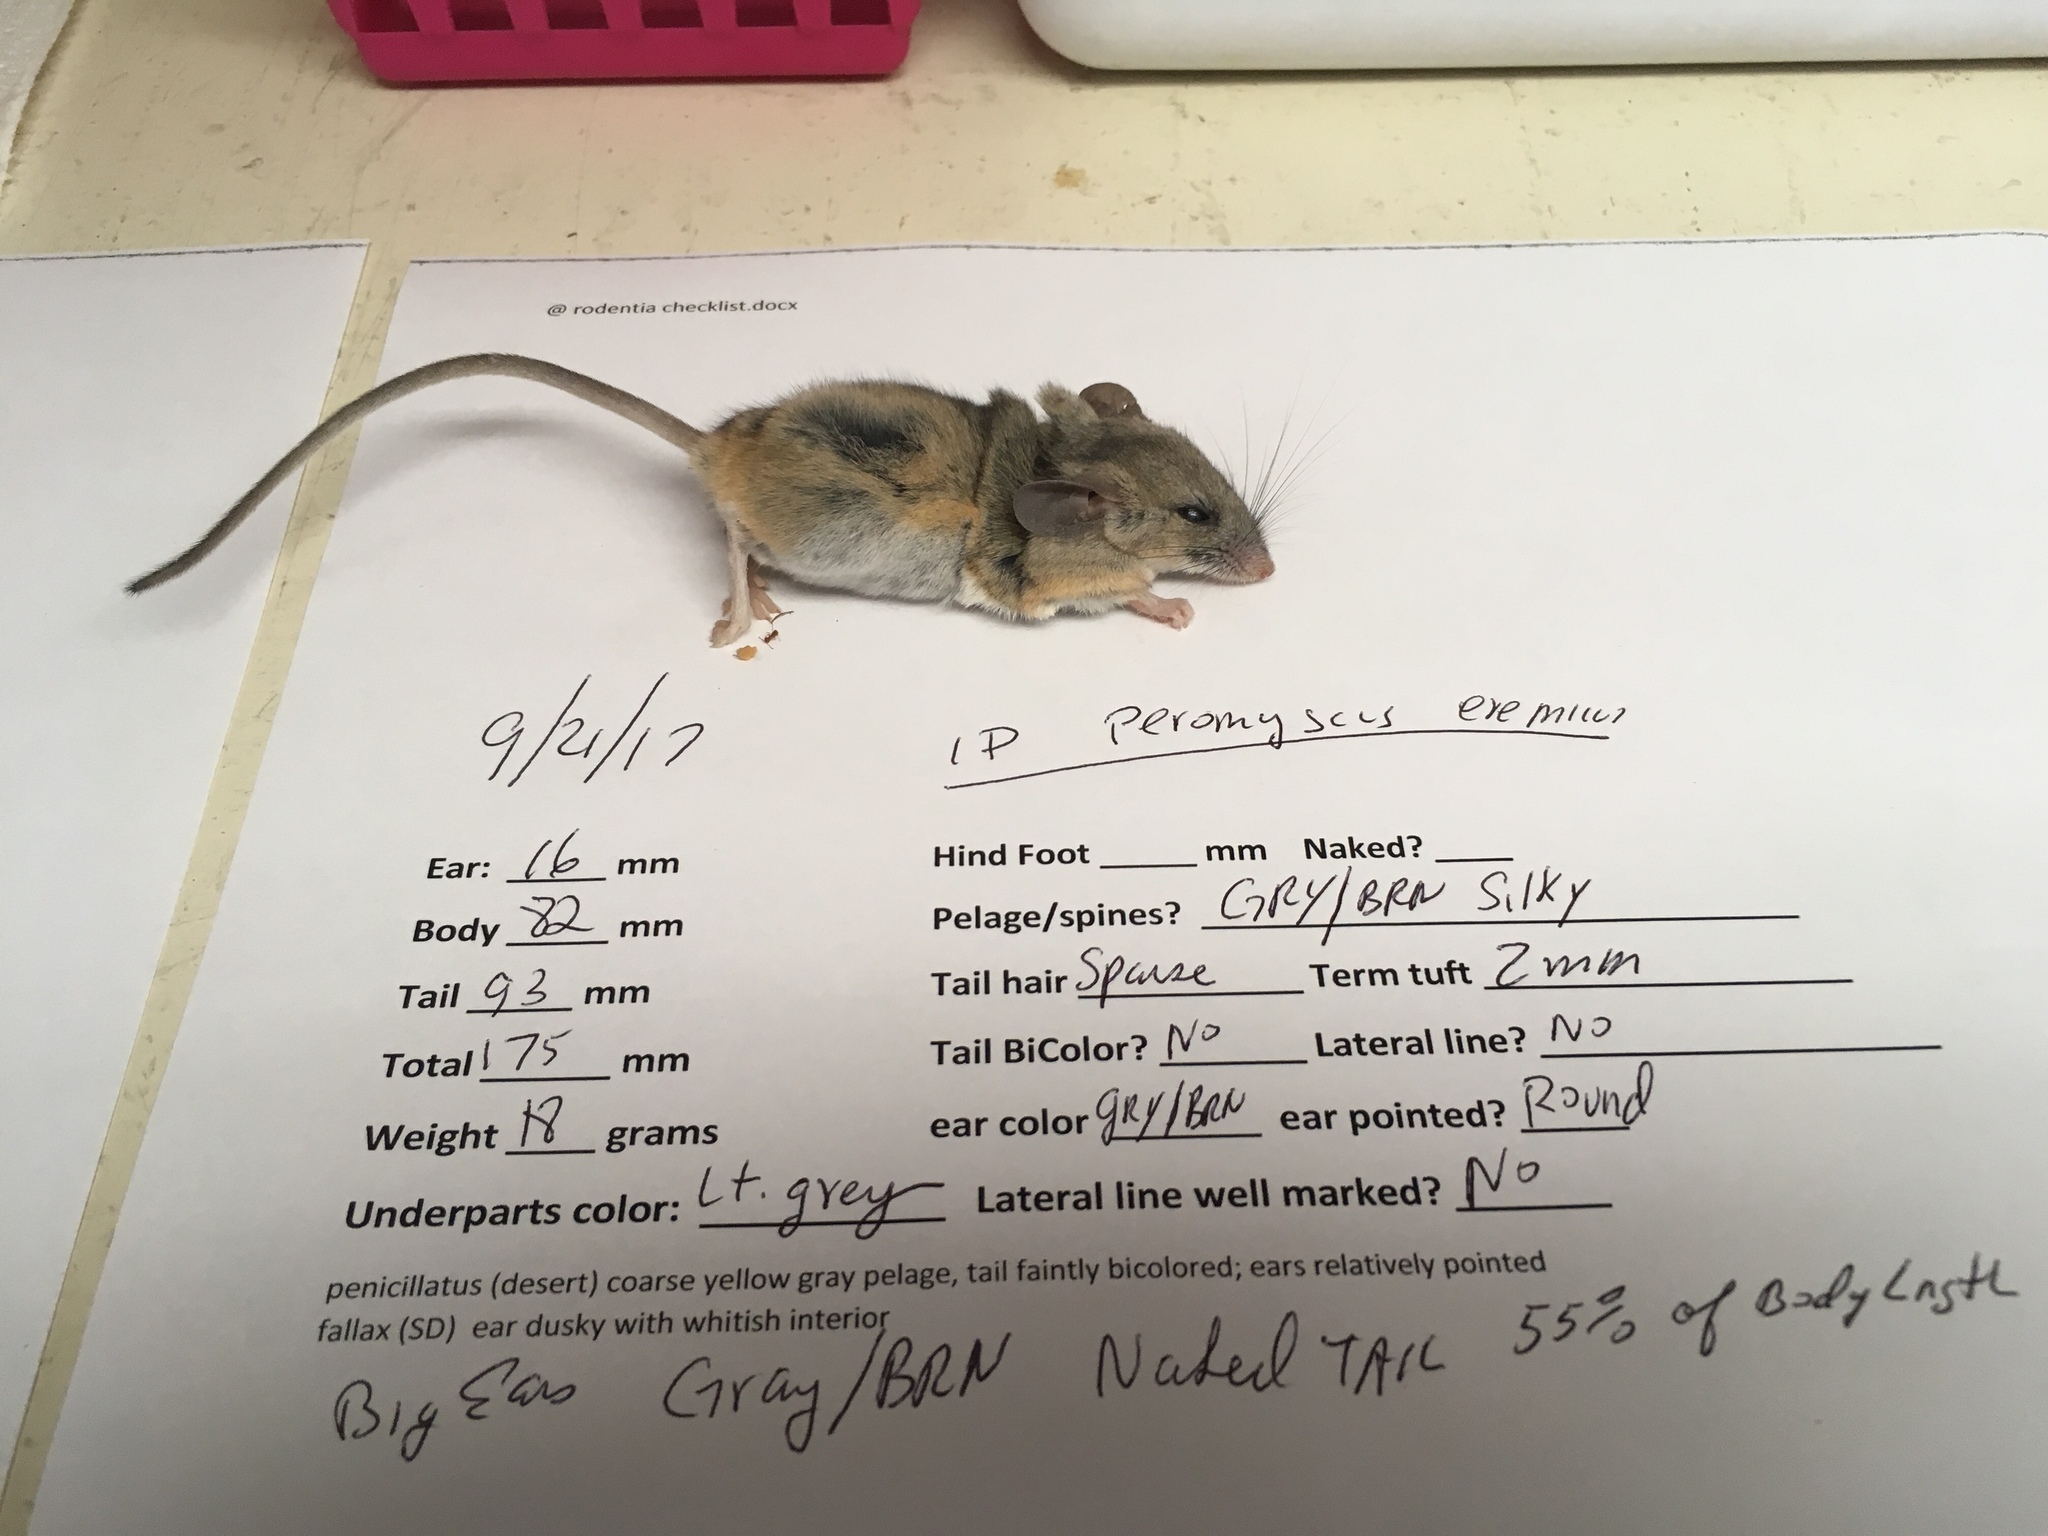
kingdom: Animalia
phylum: Chordata
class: Mammalia
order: Rodentia
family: Cricetidae
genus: Peromyscus
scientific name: Peromyscus eremicus
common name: Cactus deermouse
